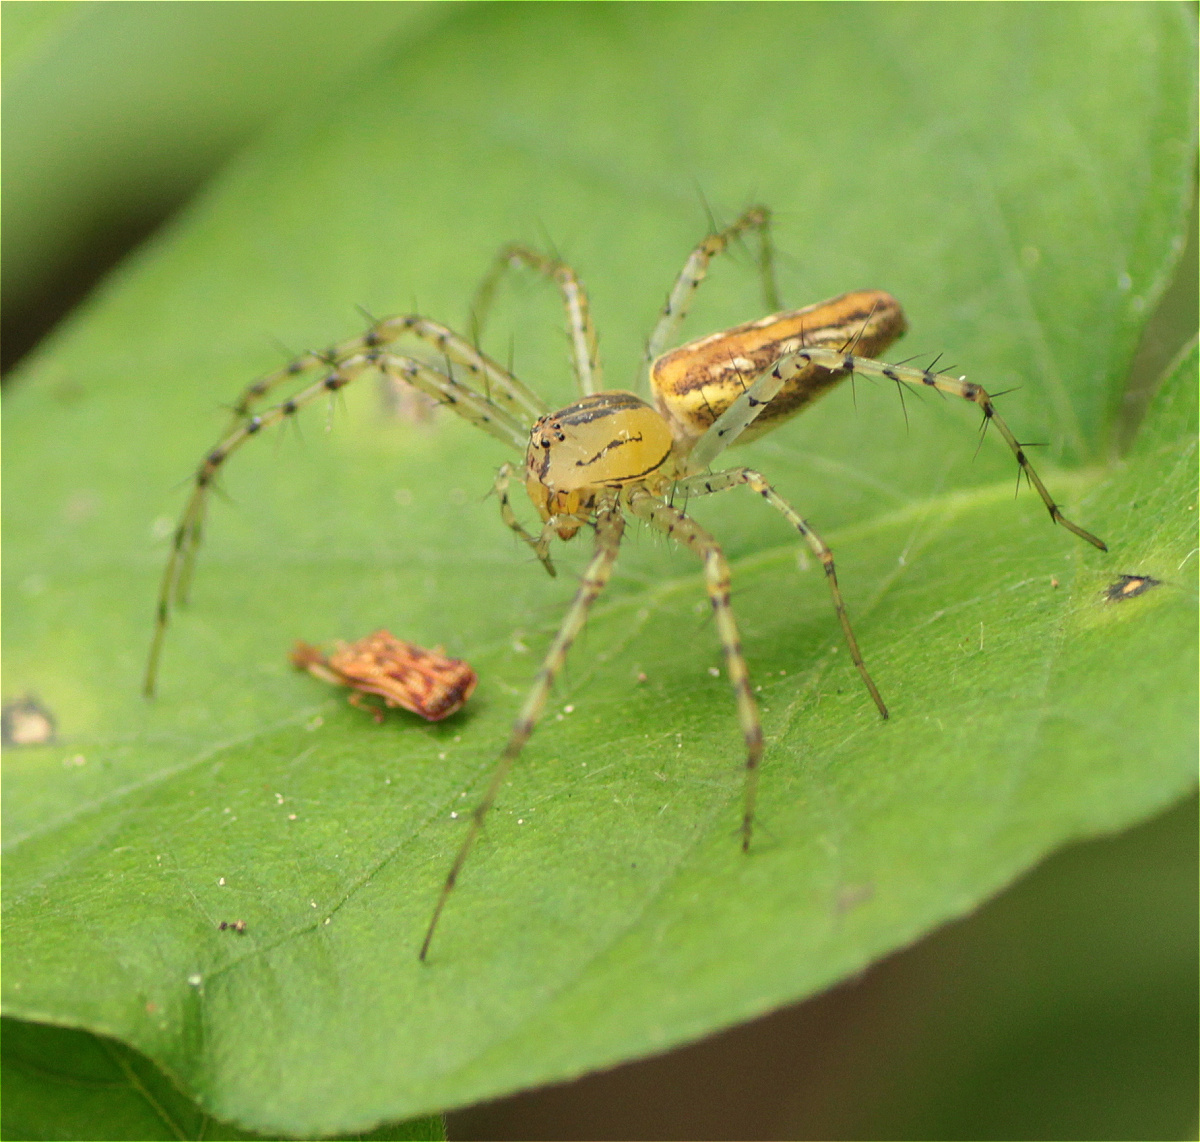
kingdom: Animalia
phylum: Arthropoda
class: Arachnida
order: Araneae
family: Oxyopidae
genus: Peucetia
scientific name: Peucetia rubrolineata
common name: Lynx spiders
